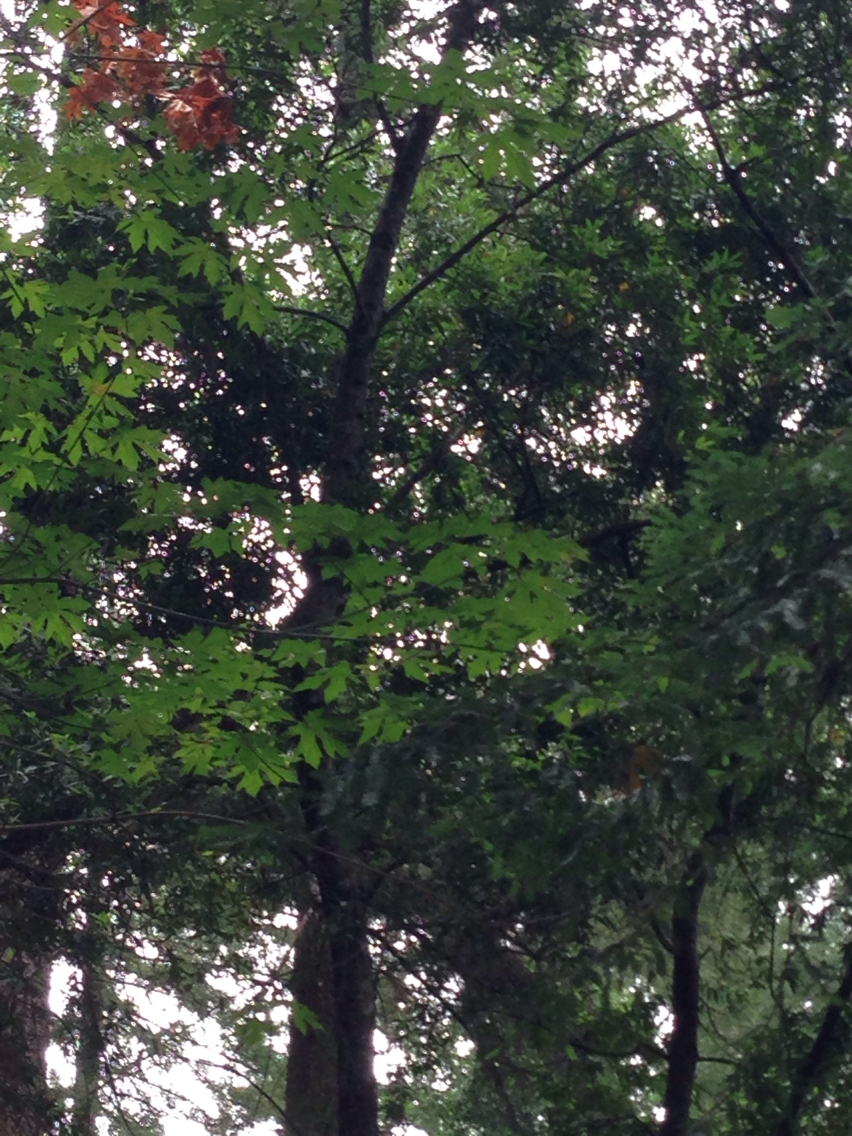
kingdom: Plantae
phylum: Tracheophyta
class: Magnoliopsida
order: Laurales
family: Lauraceae
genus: Umbellularia
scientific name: Umbellularia californica
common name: California bay
